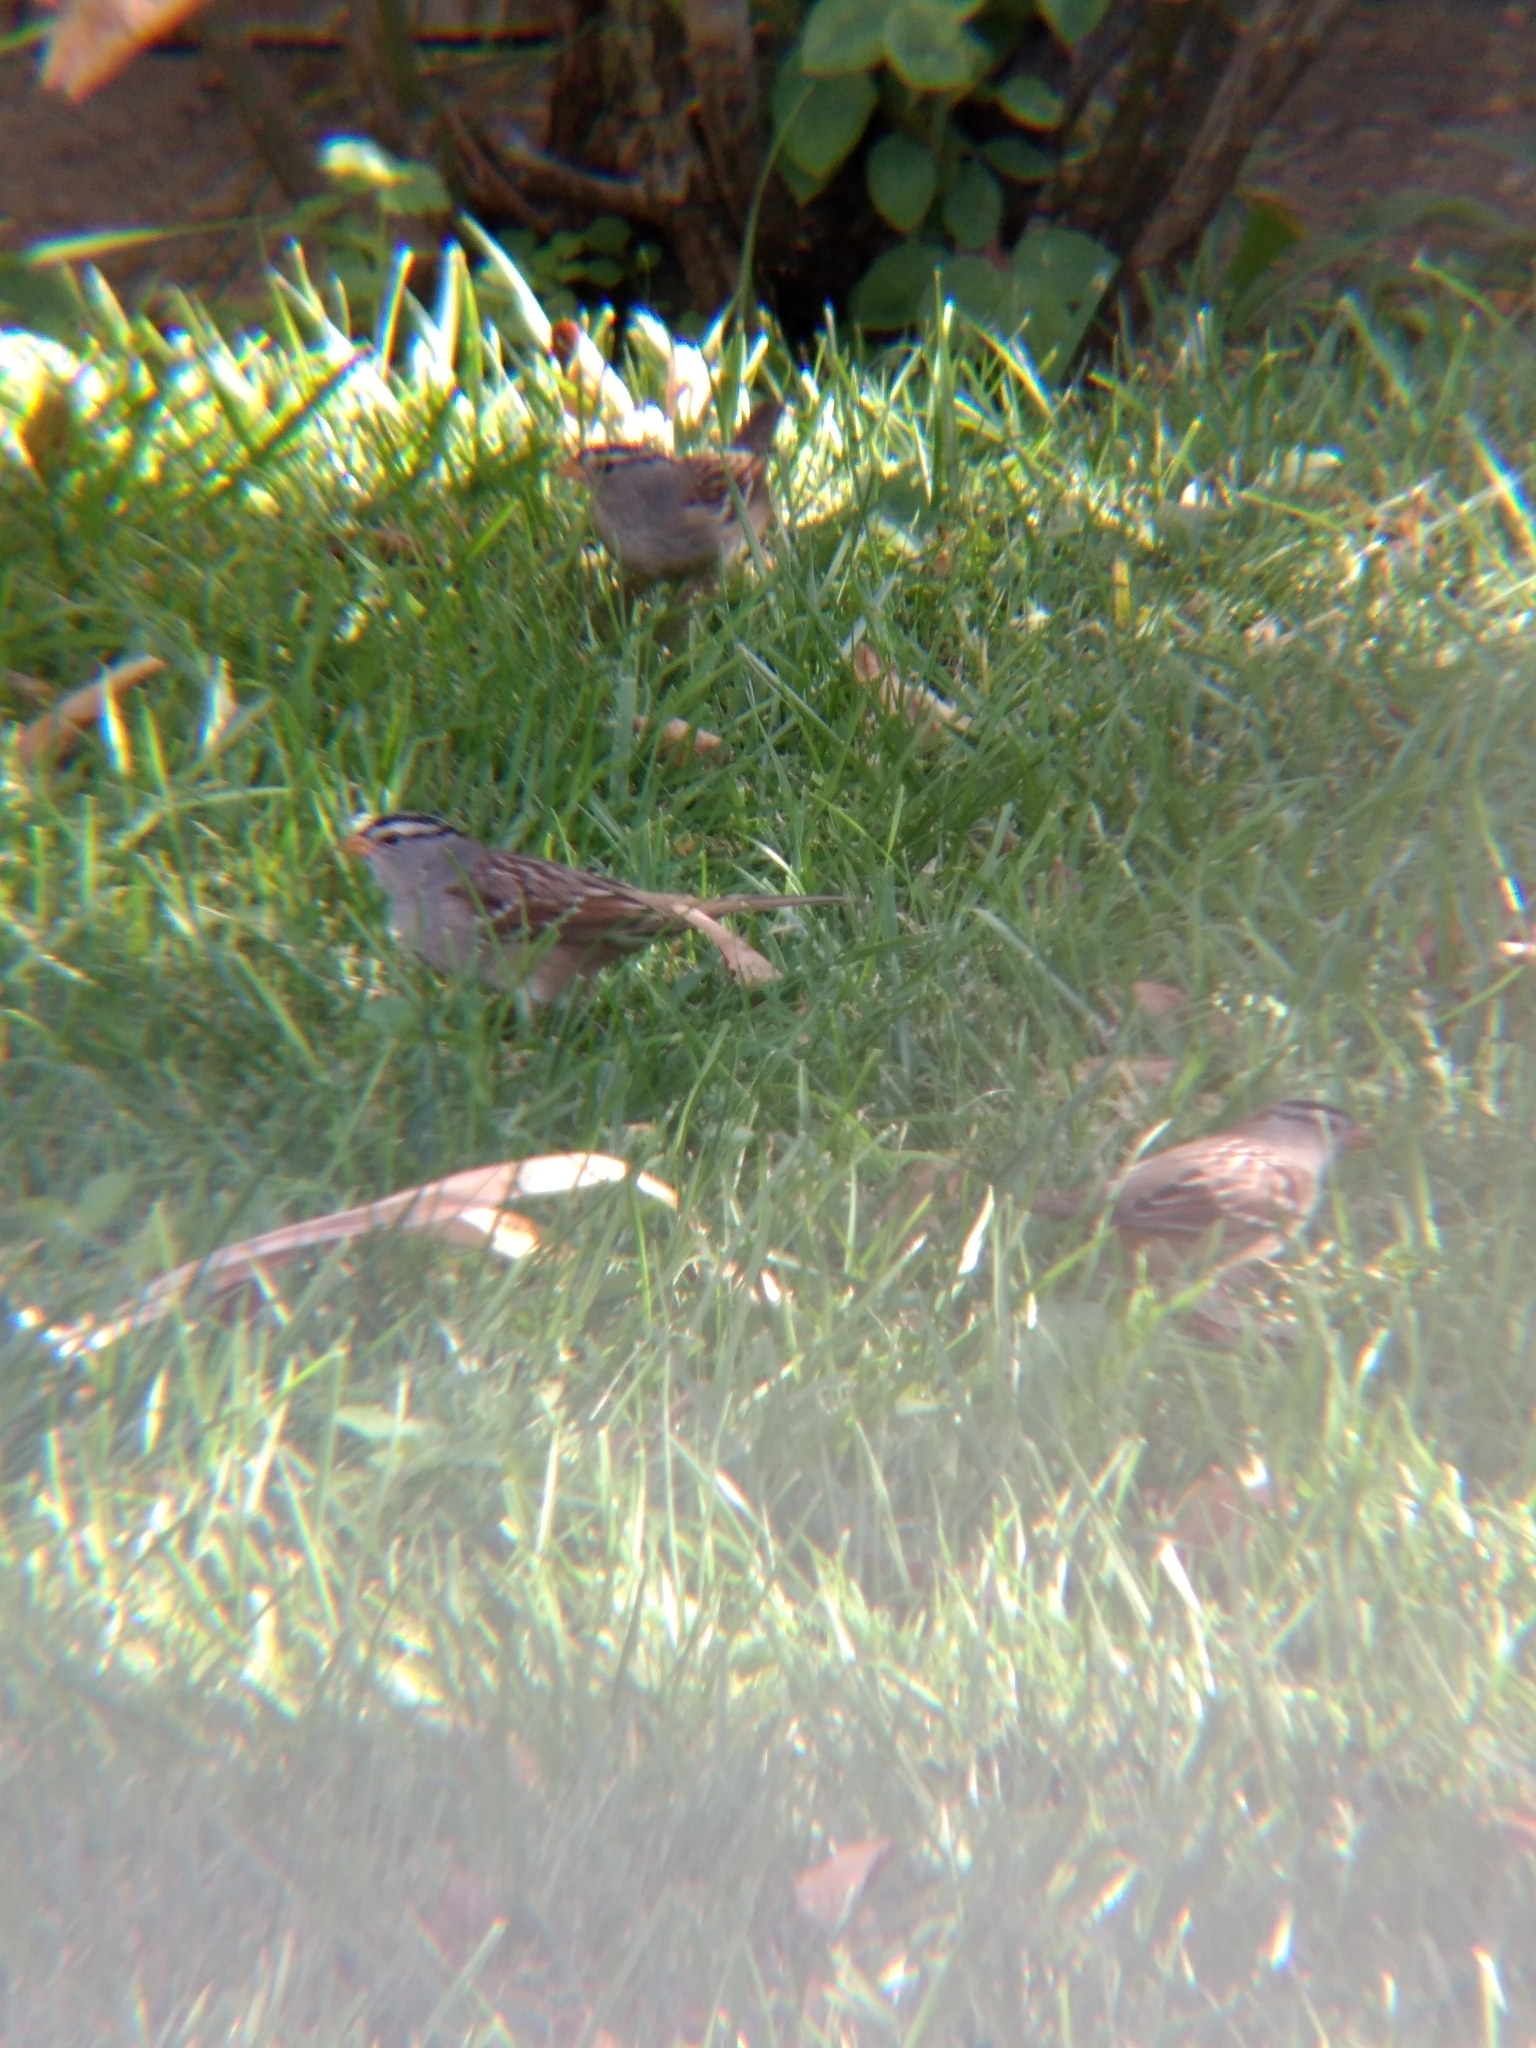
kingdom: Animalia
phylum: Chordata
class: Aves
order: Passeriformes
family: Passerellidae
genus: Zonotrichia
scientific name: Zonotrichia leucophrys
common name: White-crowned sparrow
